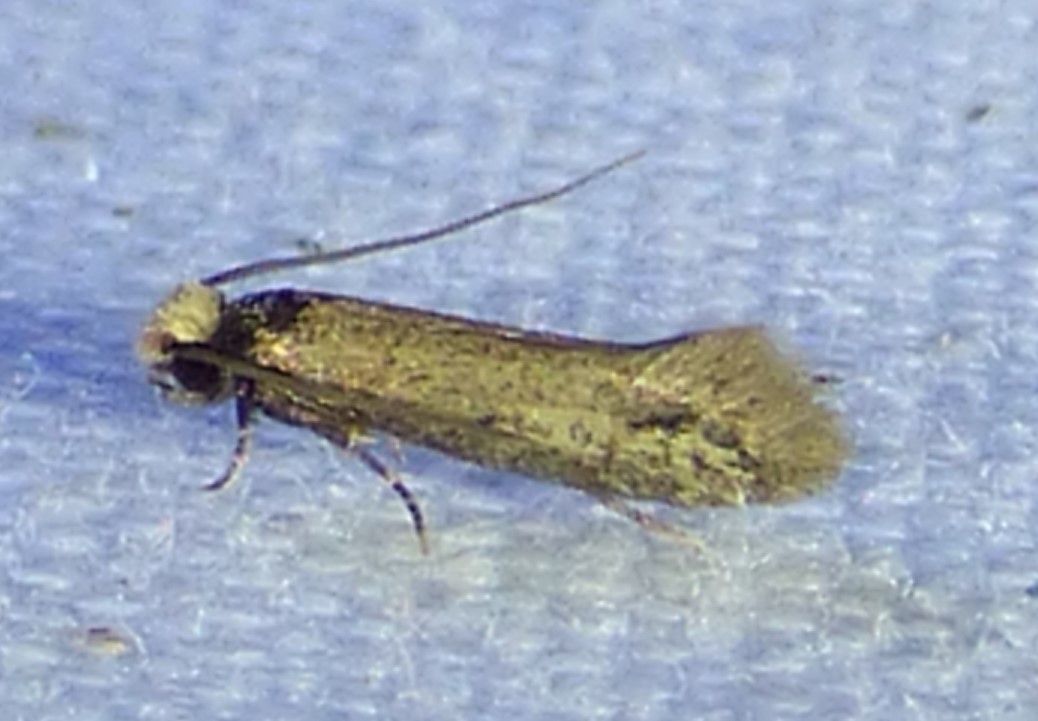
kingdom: Animalia
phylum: Arthropoda
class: Insecta
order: Lepidoptera
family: Meessiidae
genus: Homostinea
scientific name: Homostinea curviliniella
